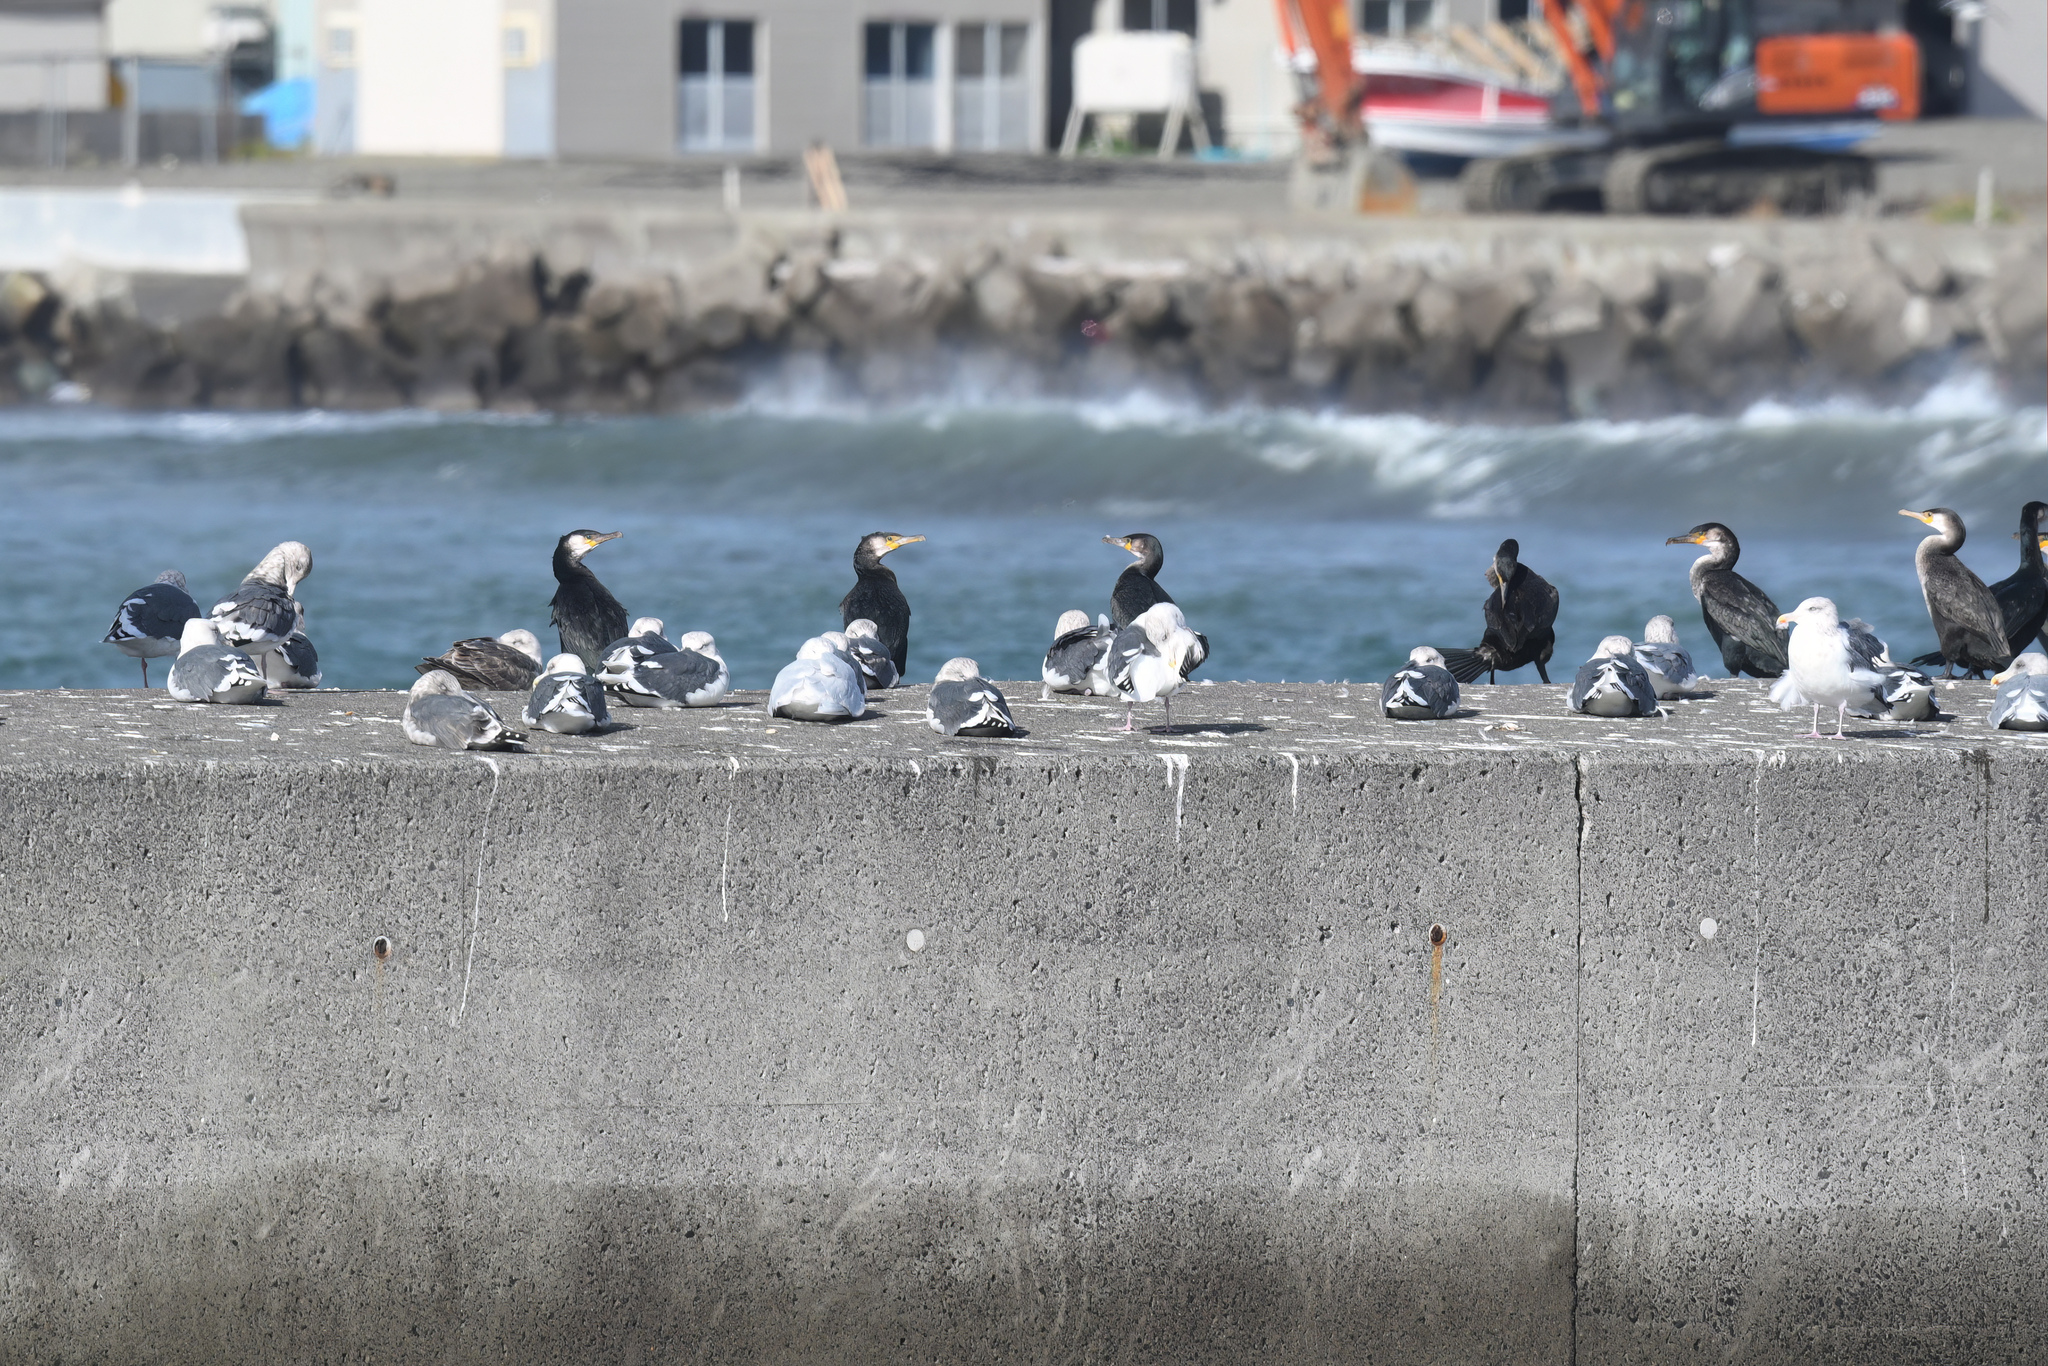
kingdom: Animalia
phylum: Chordata
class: Aves
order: Suliformes
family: Phalacrocoracidae
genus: Phalacrocorax
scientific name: Phalacrocorax capillatus
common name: Japanese cormorant
